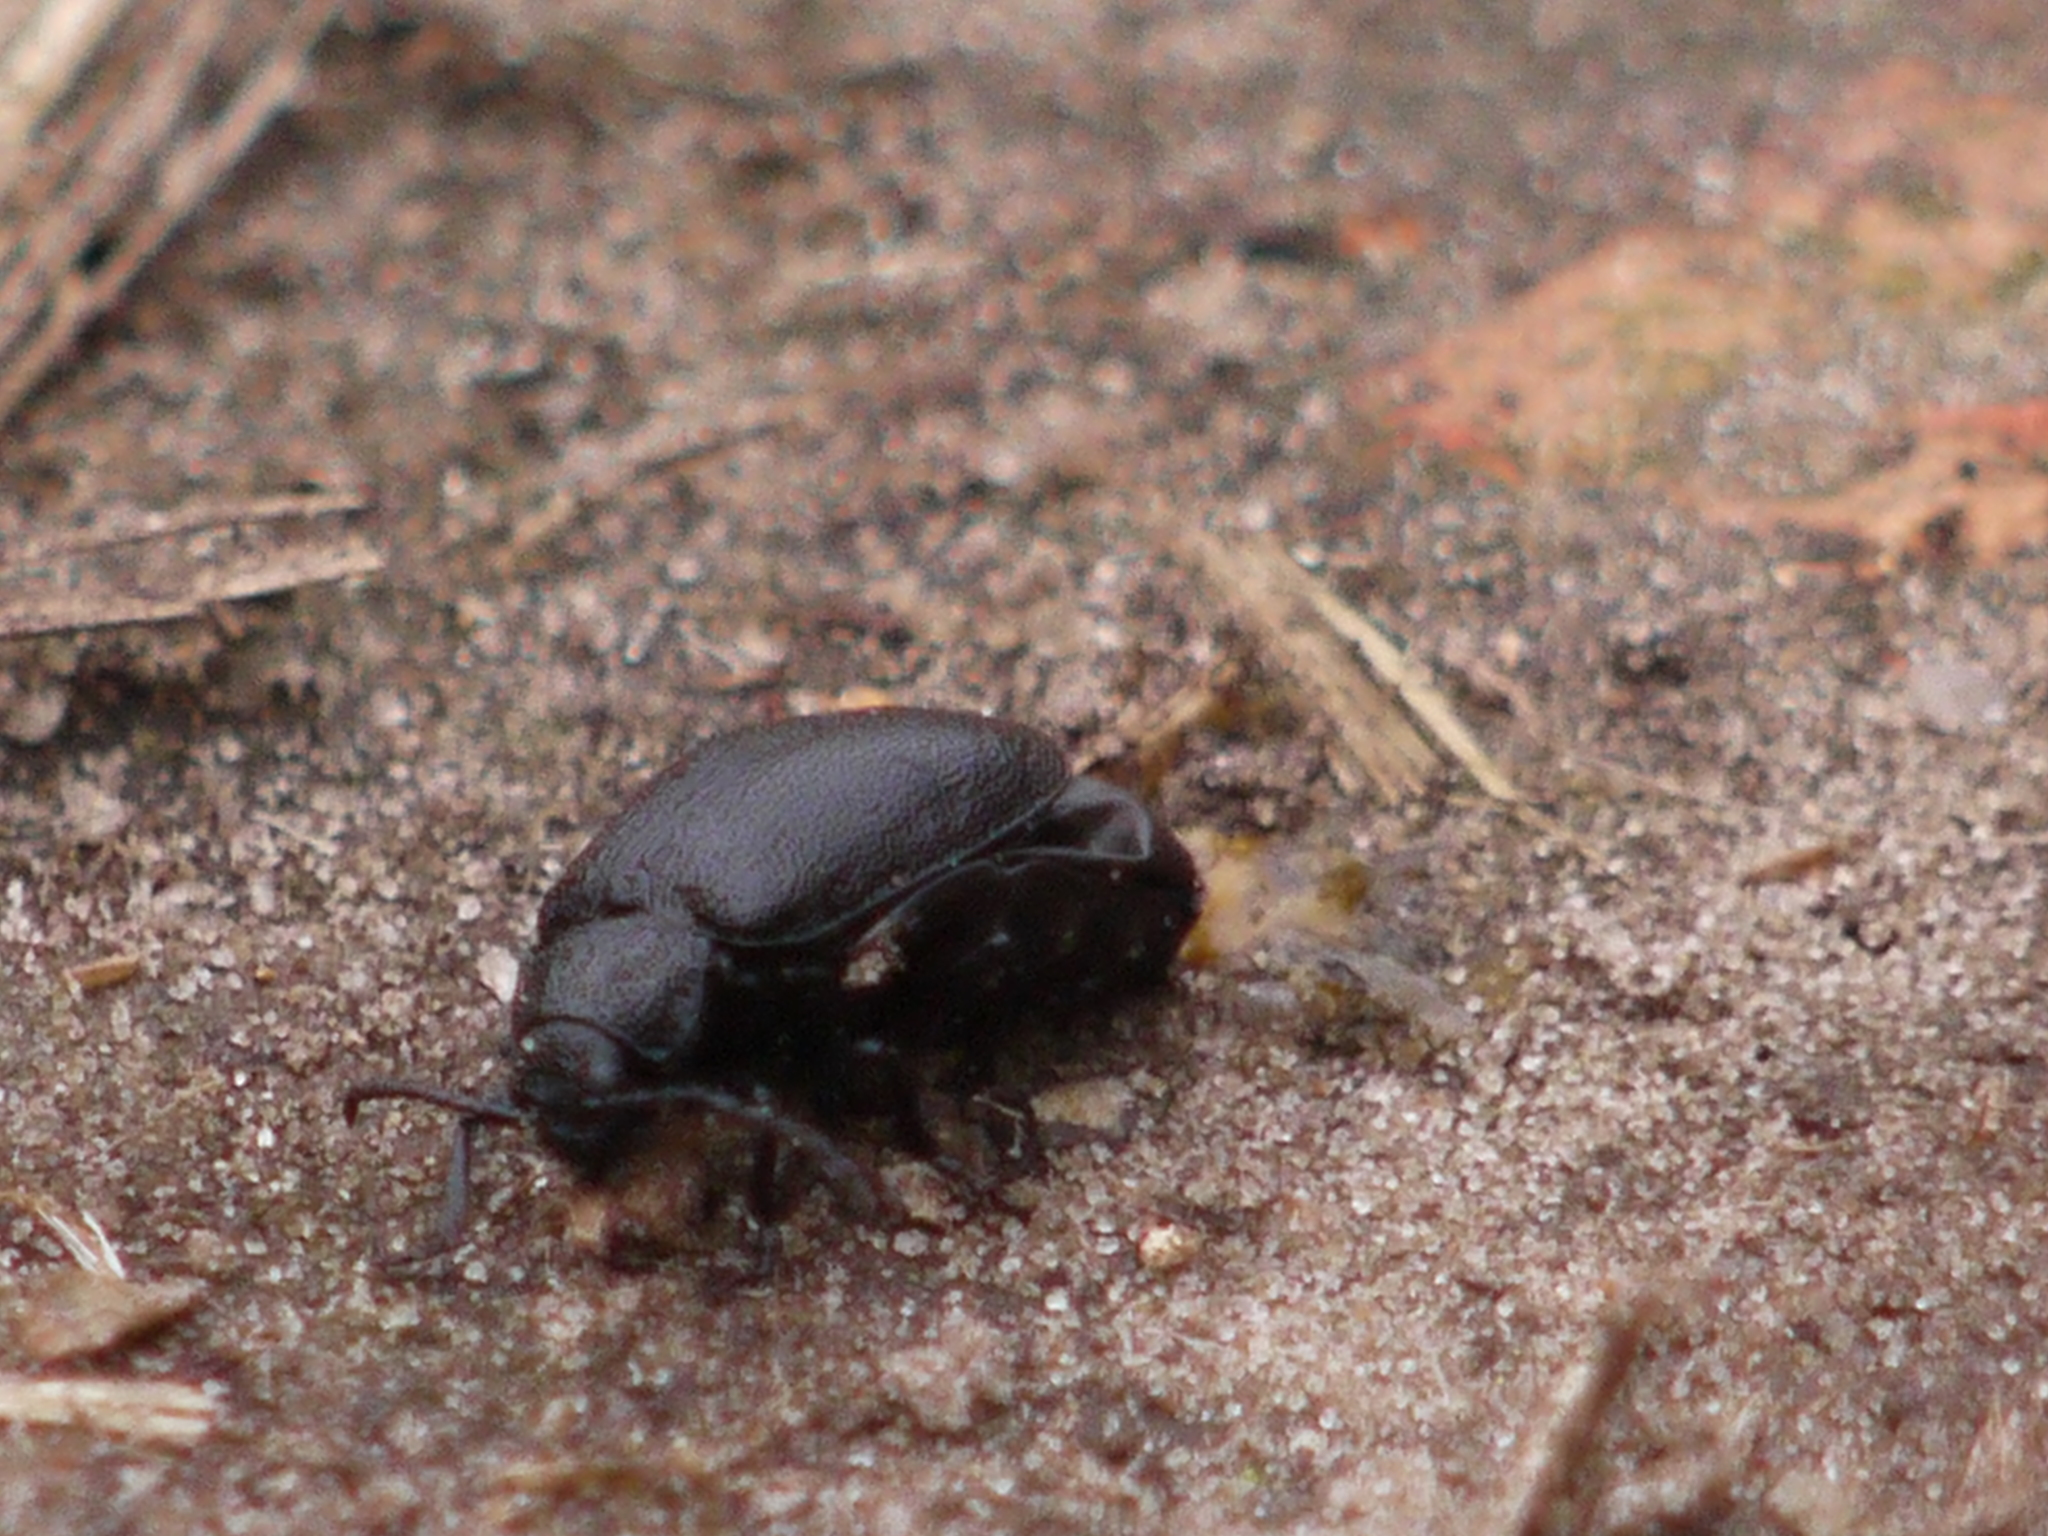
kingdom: Animalia
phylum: Arthropoda
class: Insecta
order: Coleoptera
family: Chrysomelidae
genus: Galeruca
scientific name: Galeruca tanaceti
